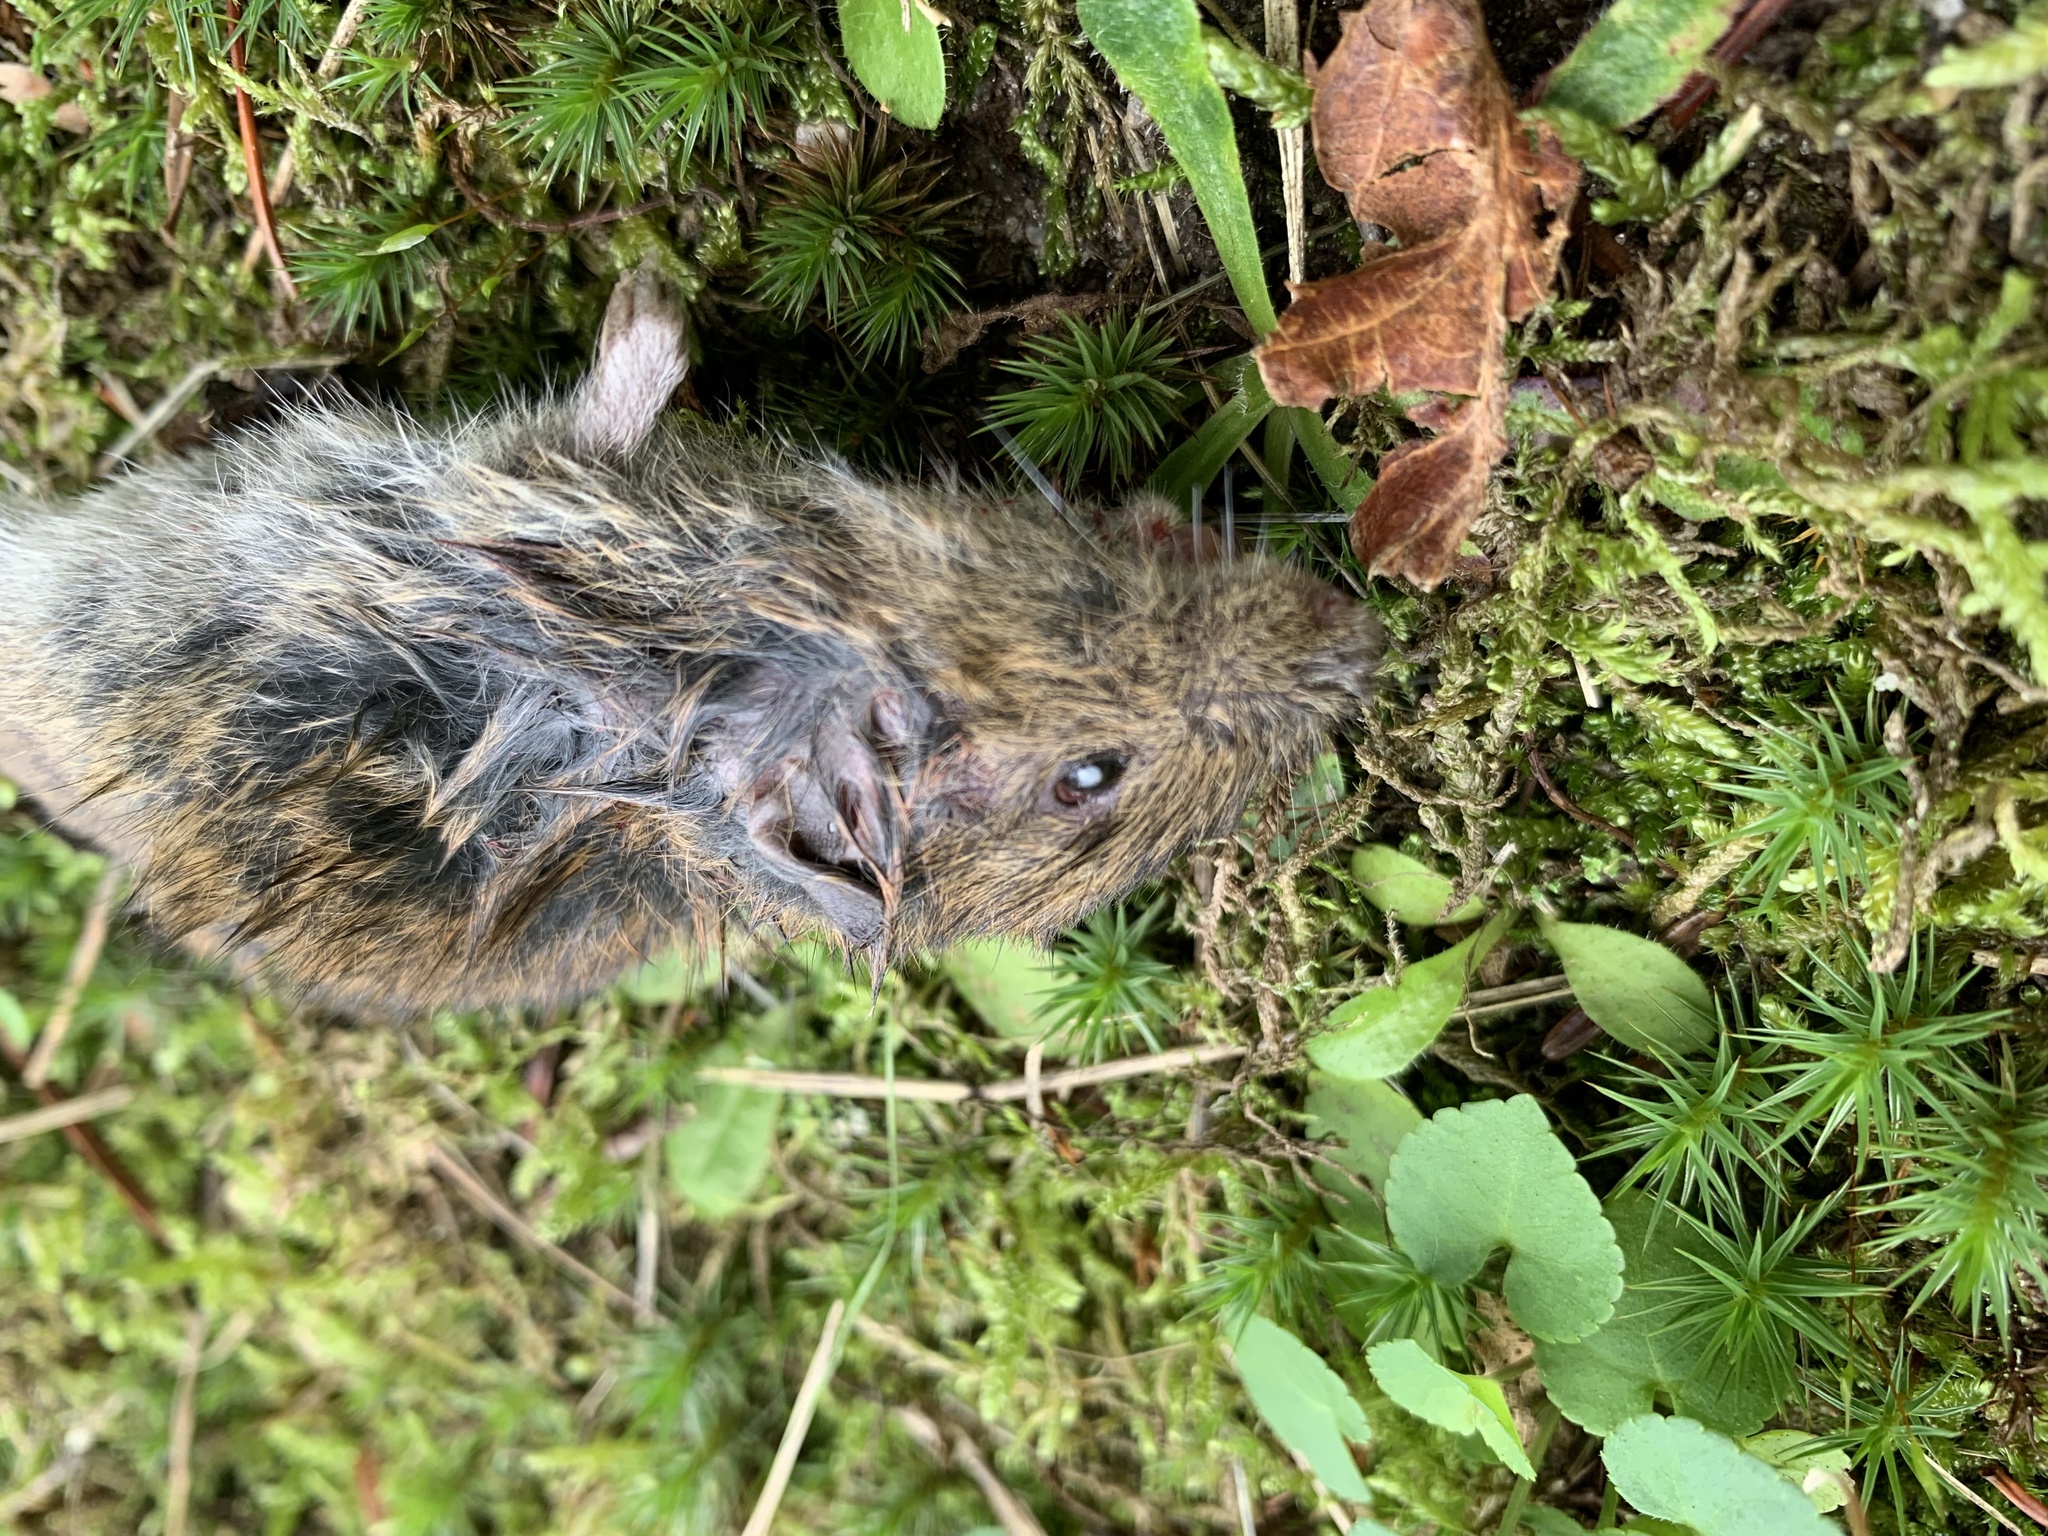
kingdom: Animalia
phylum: Chordata
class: Mammalia
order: Rodentia
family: Cricetidae
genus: Microtus
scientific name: Microtus agrestis
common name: Field vole
